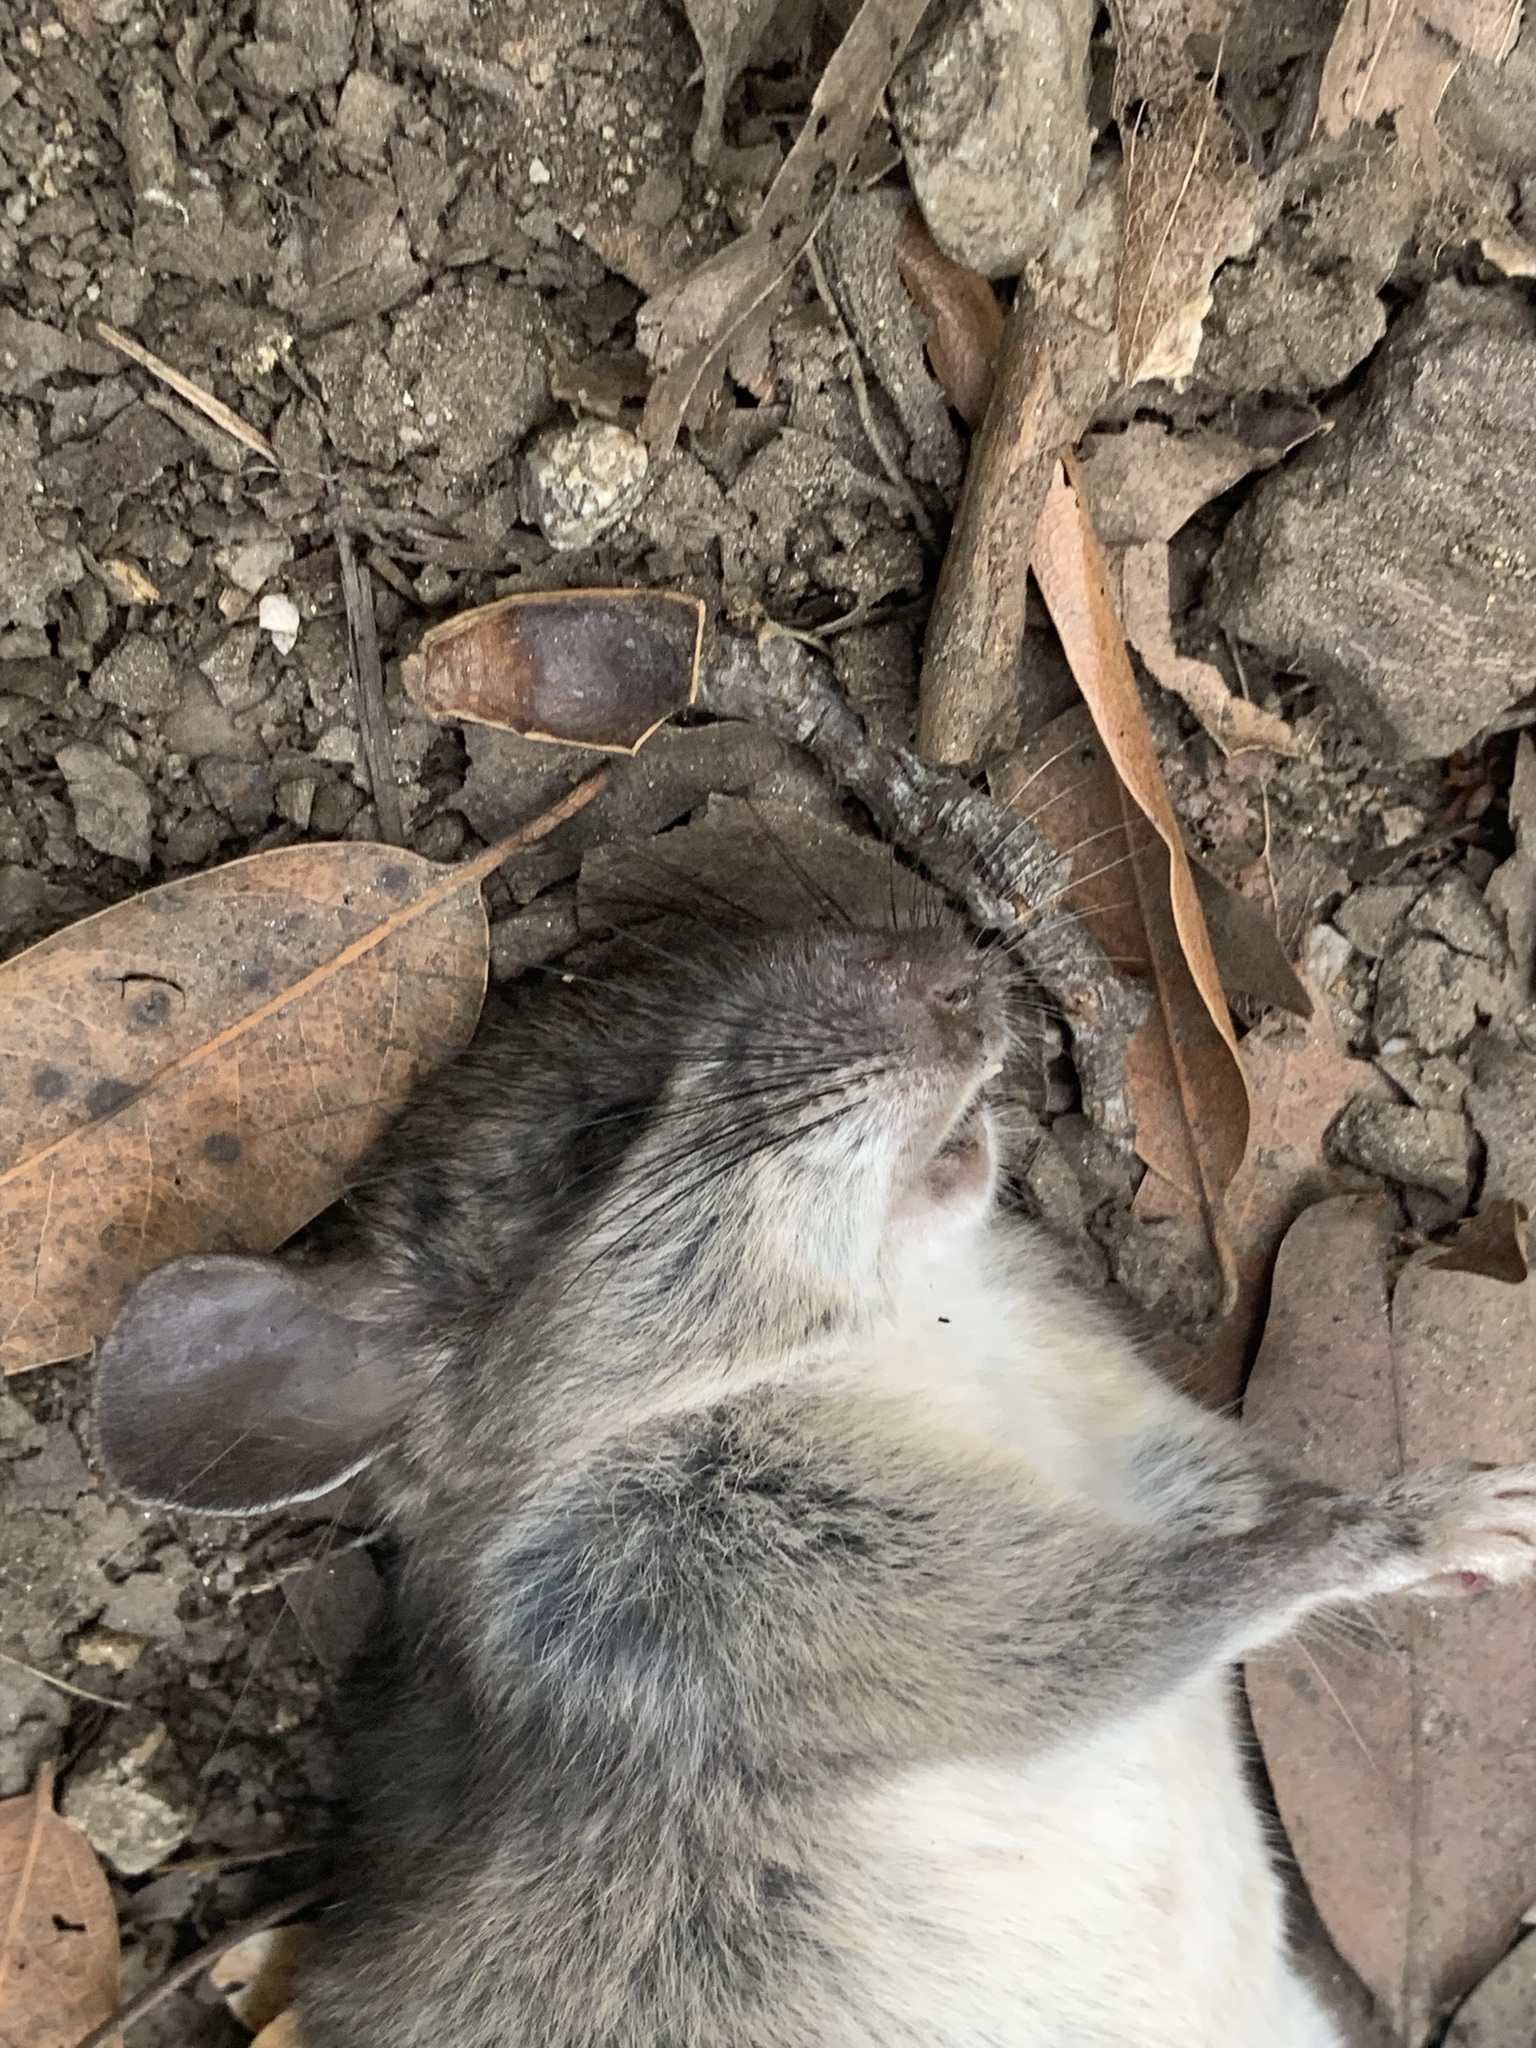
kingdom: Animalia
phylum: Chordata
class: Mammalia
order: Rodentia
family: Cricetidae
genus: Neotoma
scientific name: Neotoma fuscipes
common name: Dusky-footed woodrat
